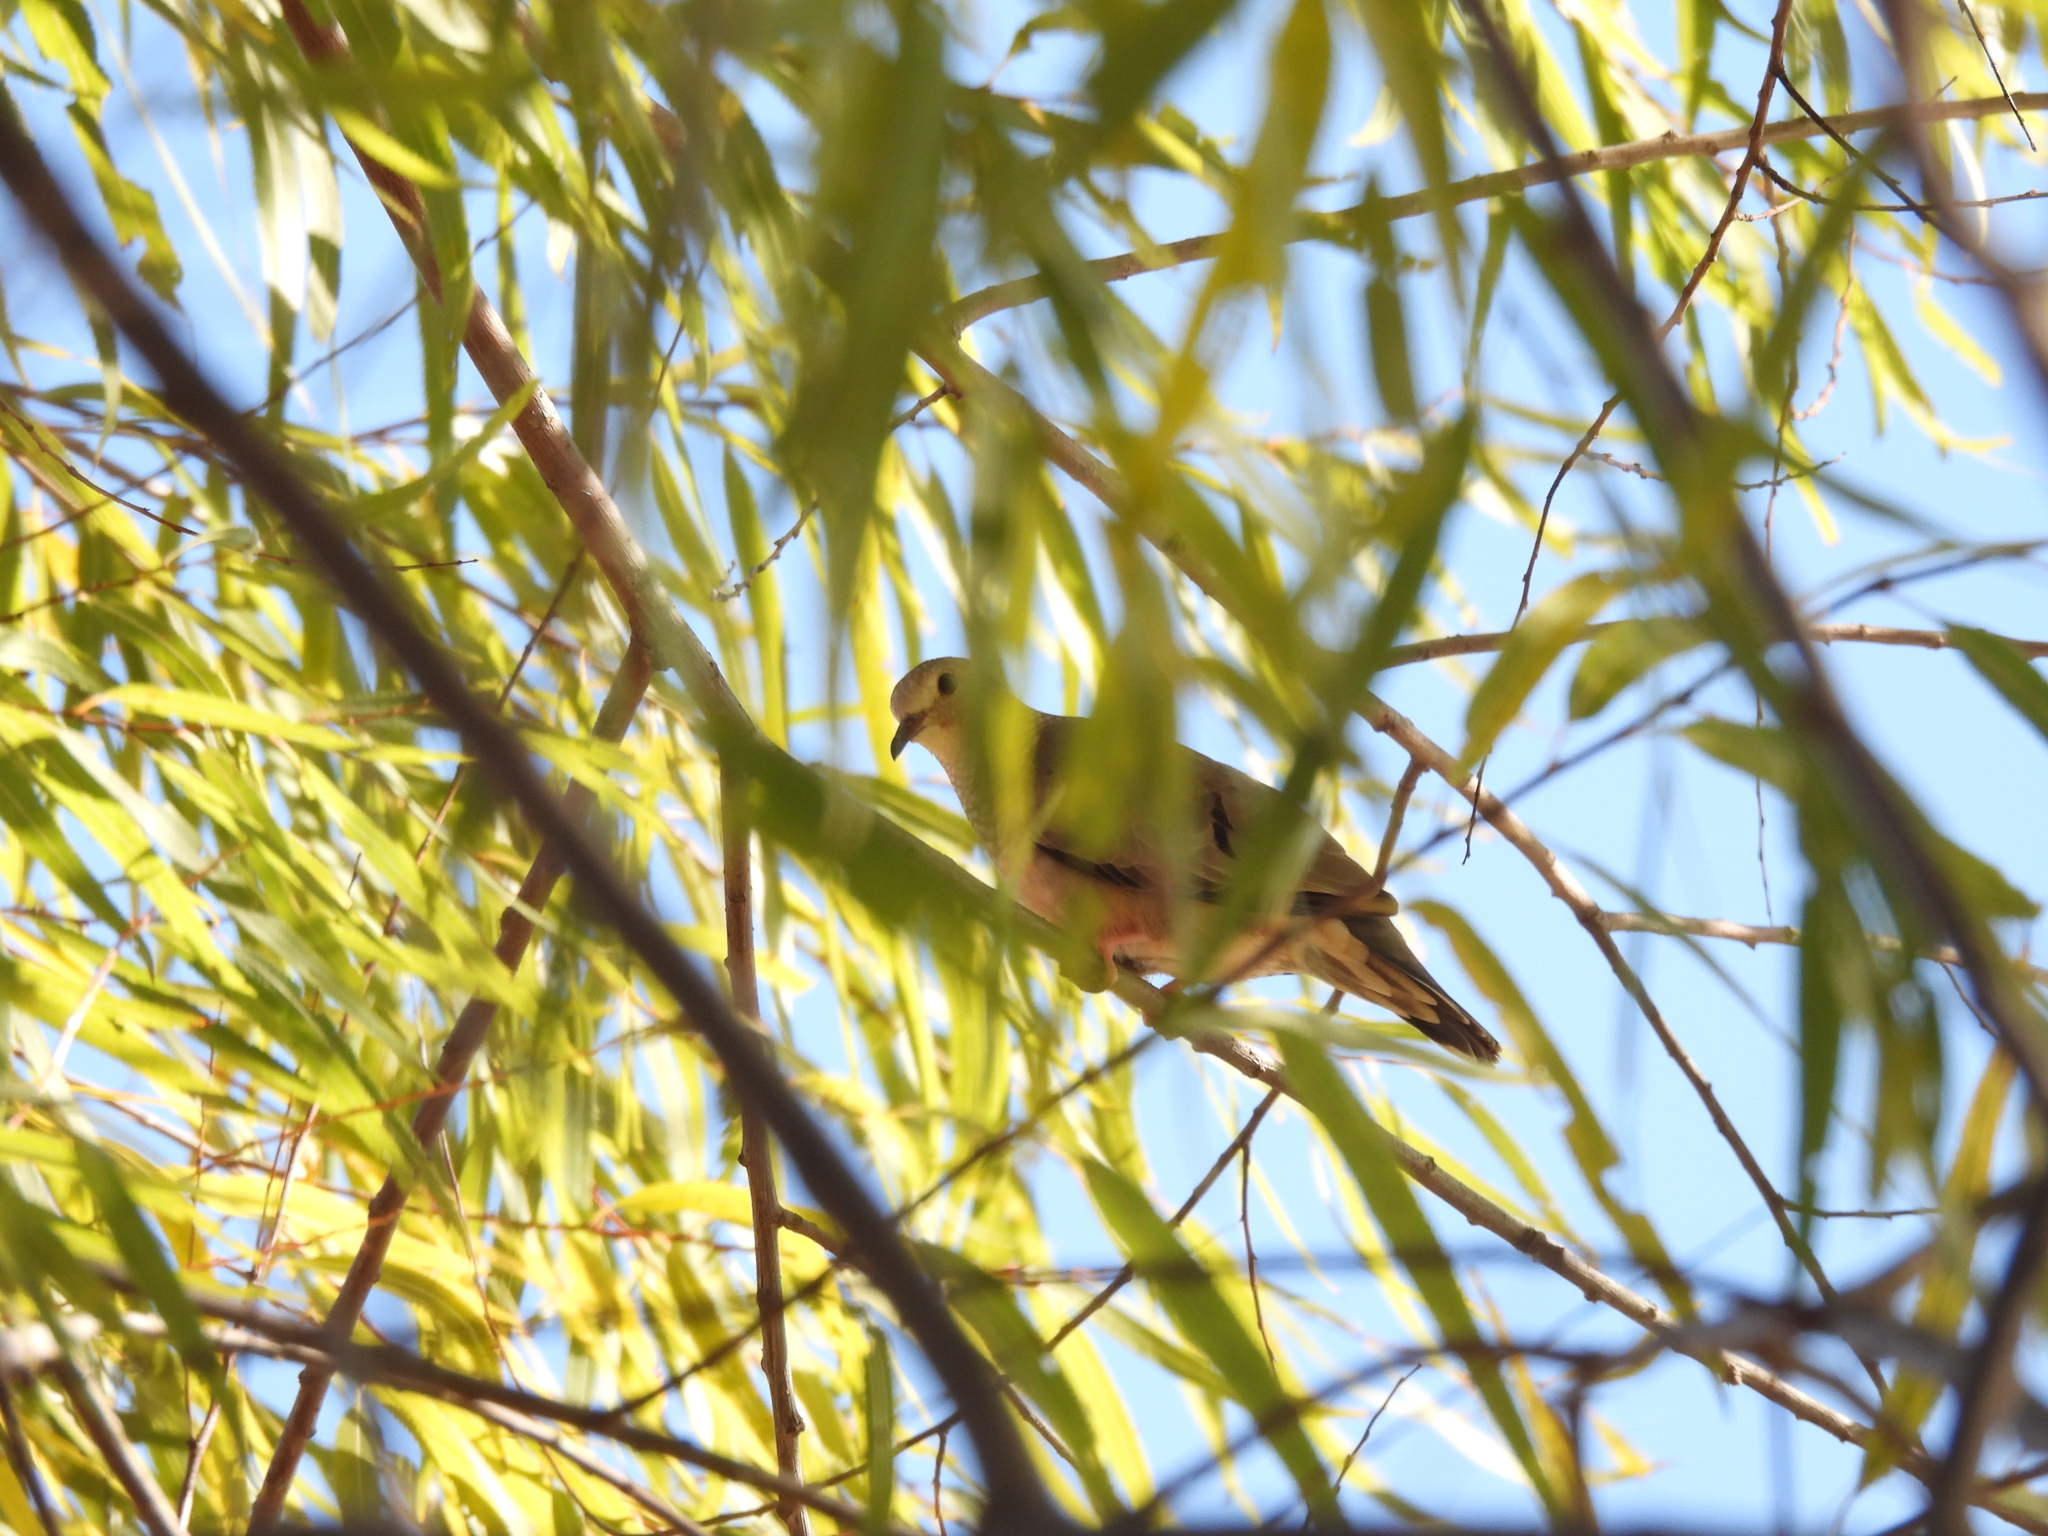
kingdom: Animalia
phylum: Chordata
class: Aves
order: Columbiformes
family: Columbidae
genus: Columbina
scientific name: Columbina passerina
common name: Common ground-dove
